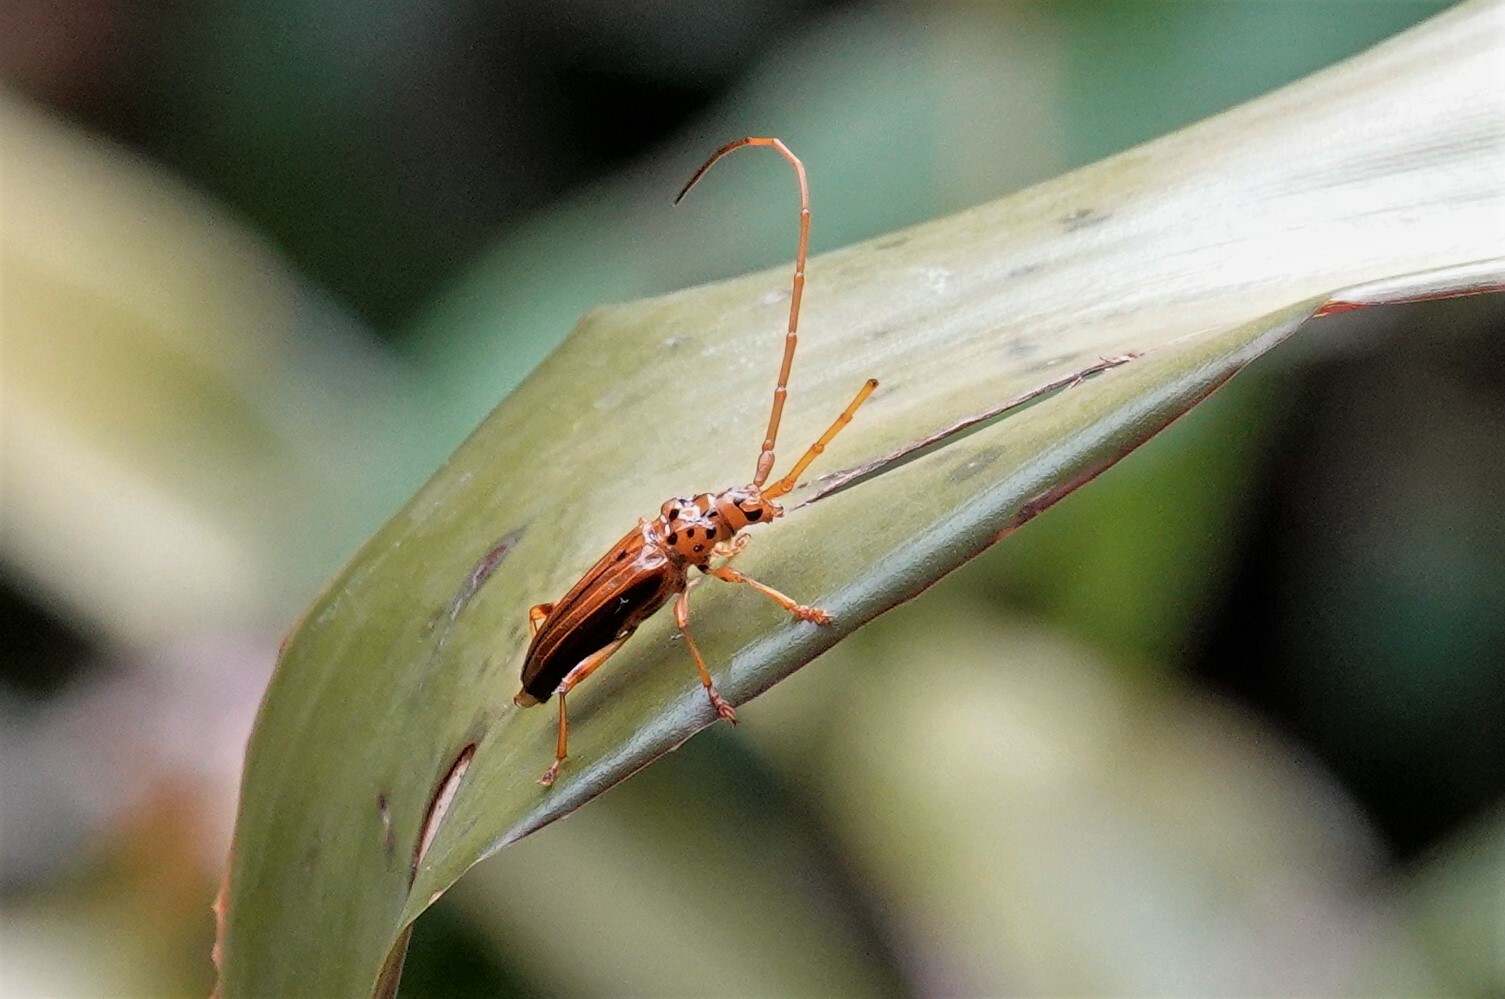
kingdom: Animalia
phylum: Arthropoda
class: Insecta
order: Coleoptera
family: Cerambycidae
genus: Chydarteres
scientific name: Chydarteres dimidiatus
